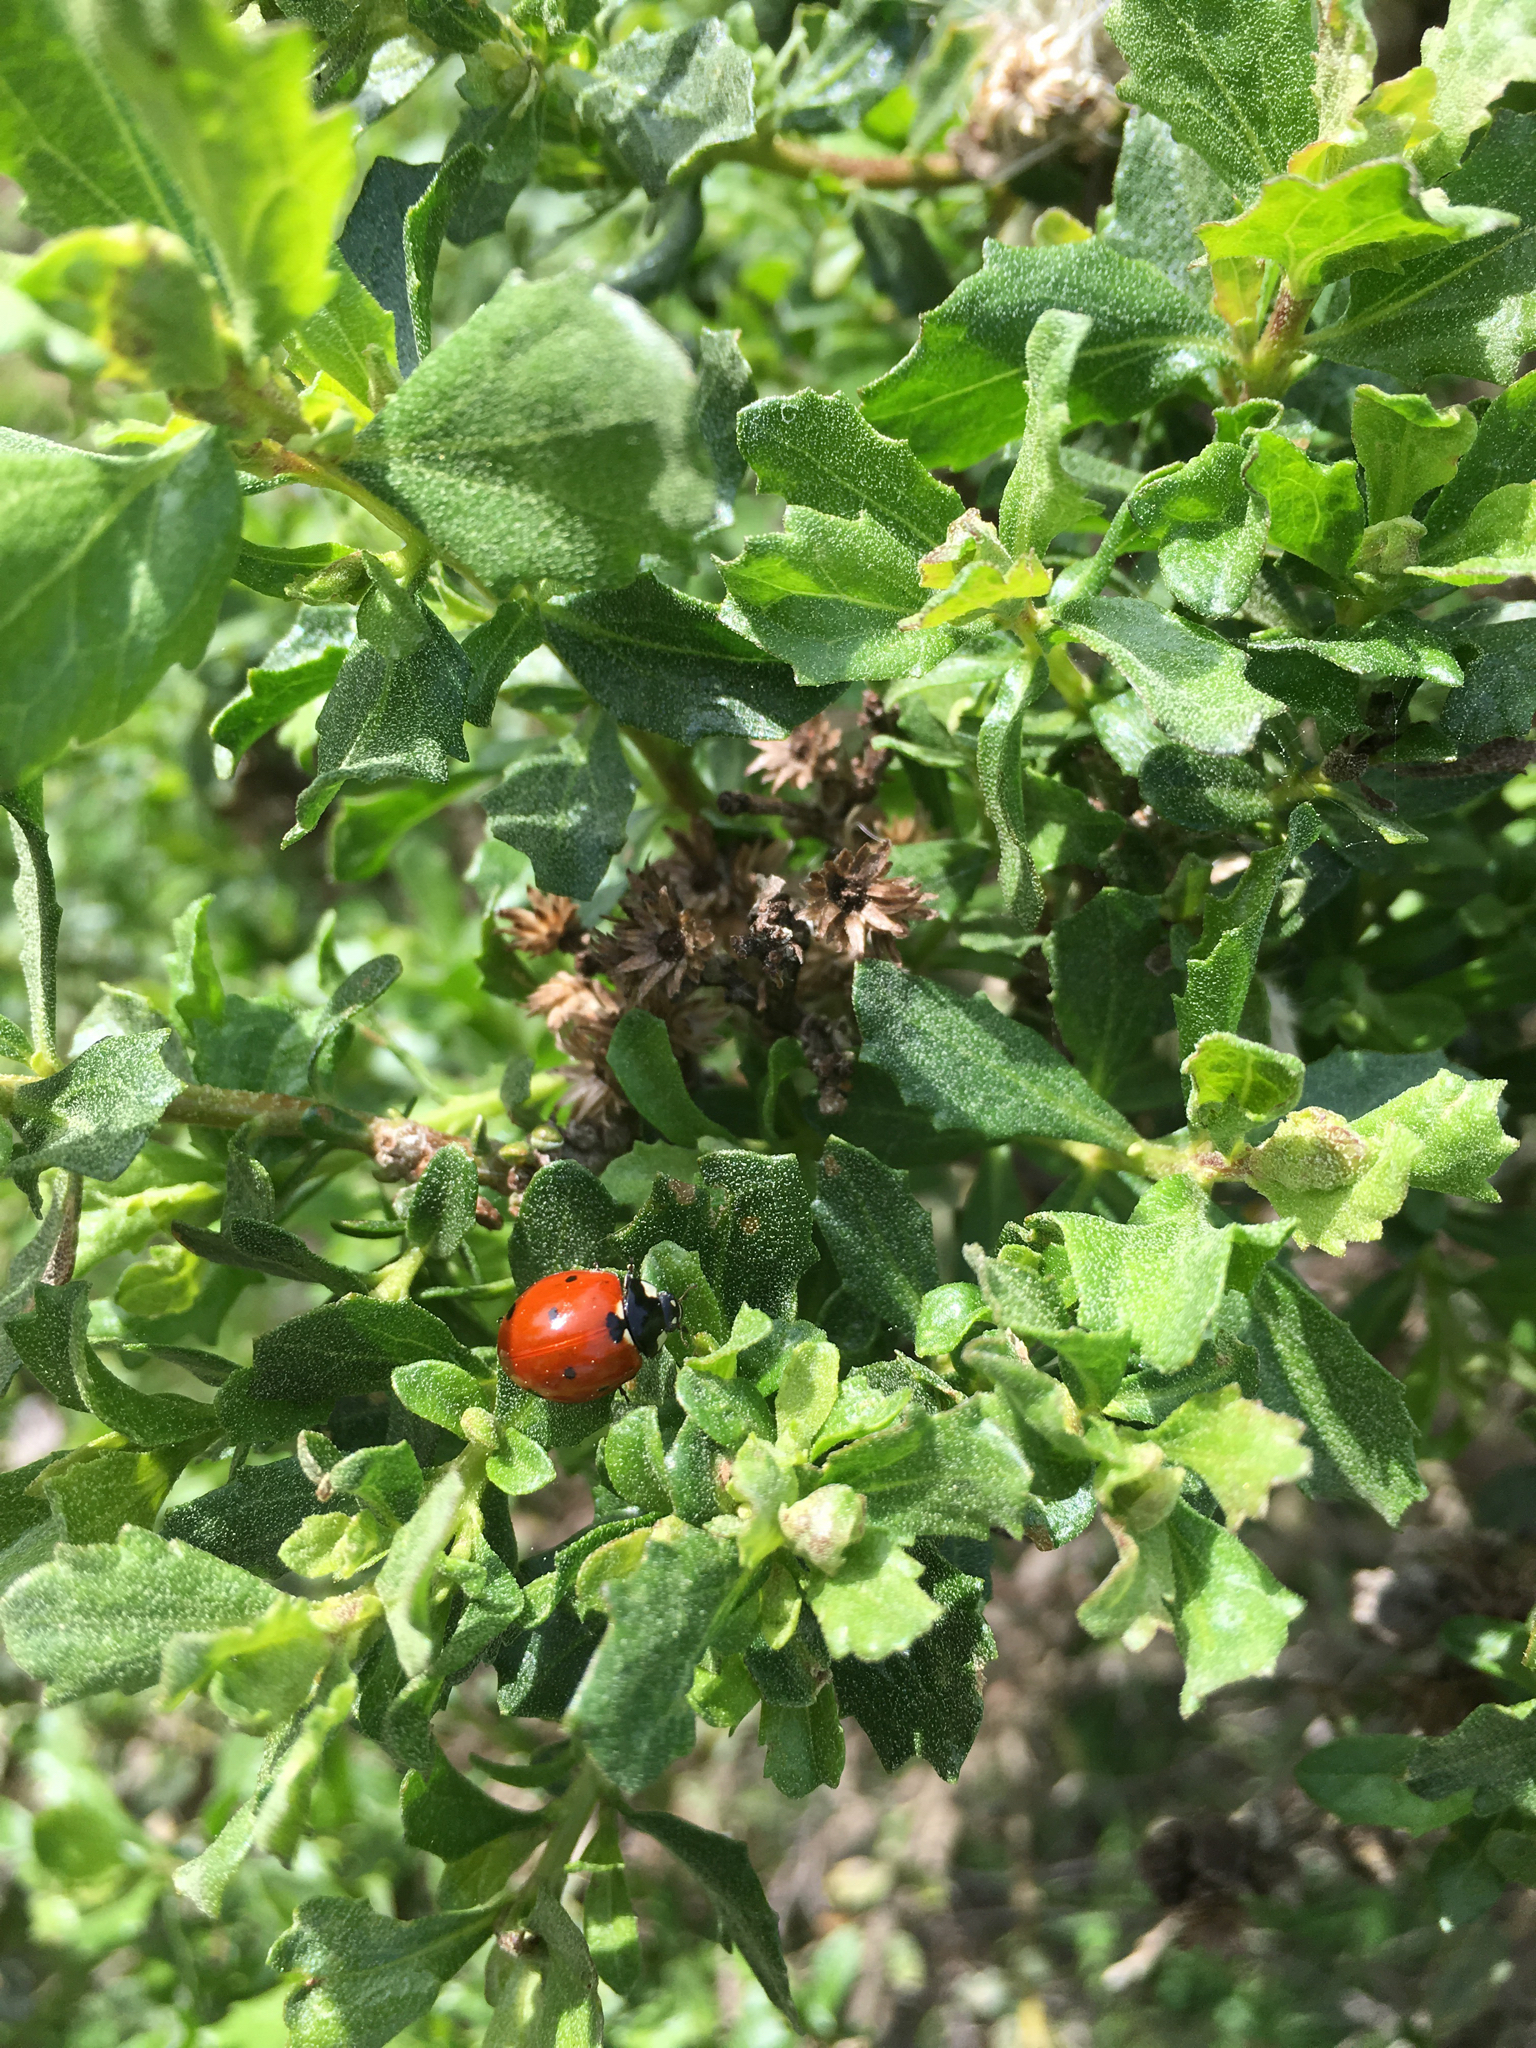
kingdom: Animalia
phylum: Arthropoda
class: Insecta
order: Coleoptera
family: Coccinellidae
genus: Coccinella
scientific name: Coccinella septempunctata
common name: Sevenspotted lady beetle
